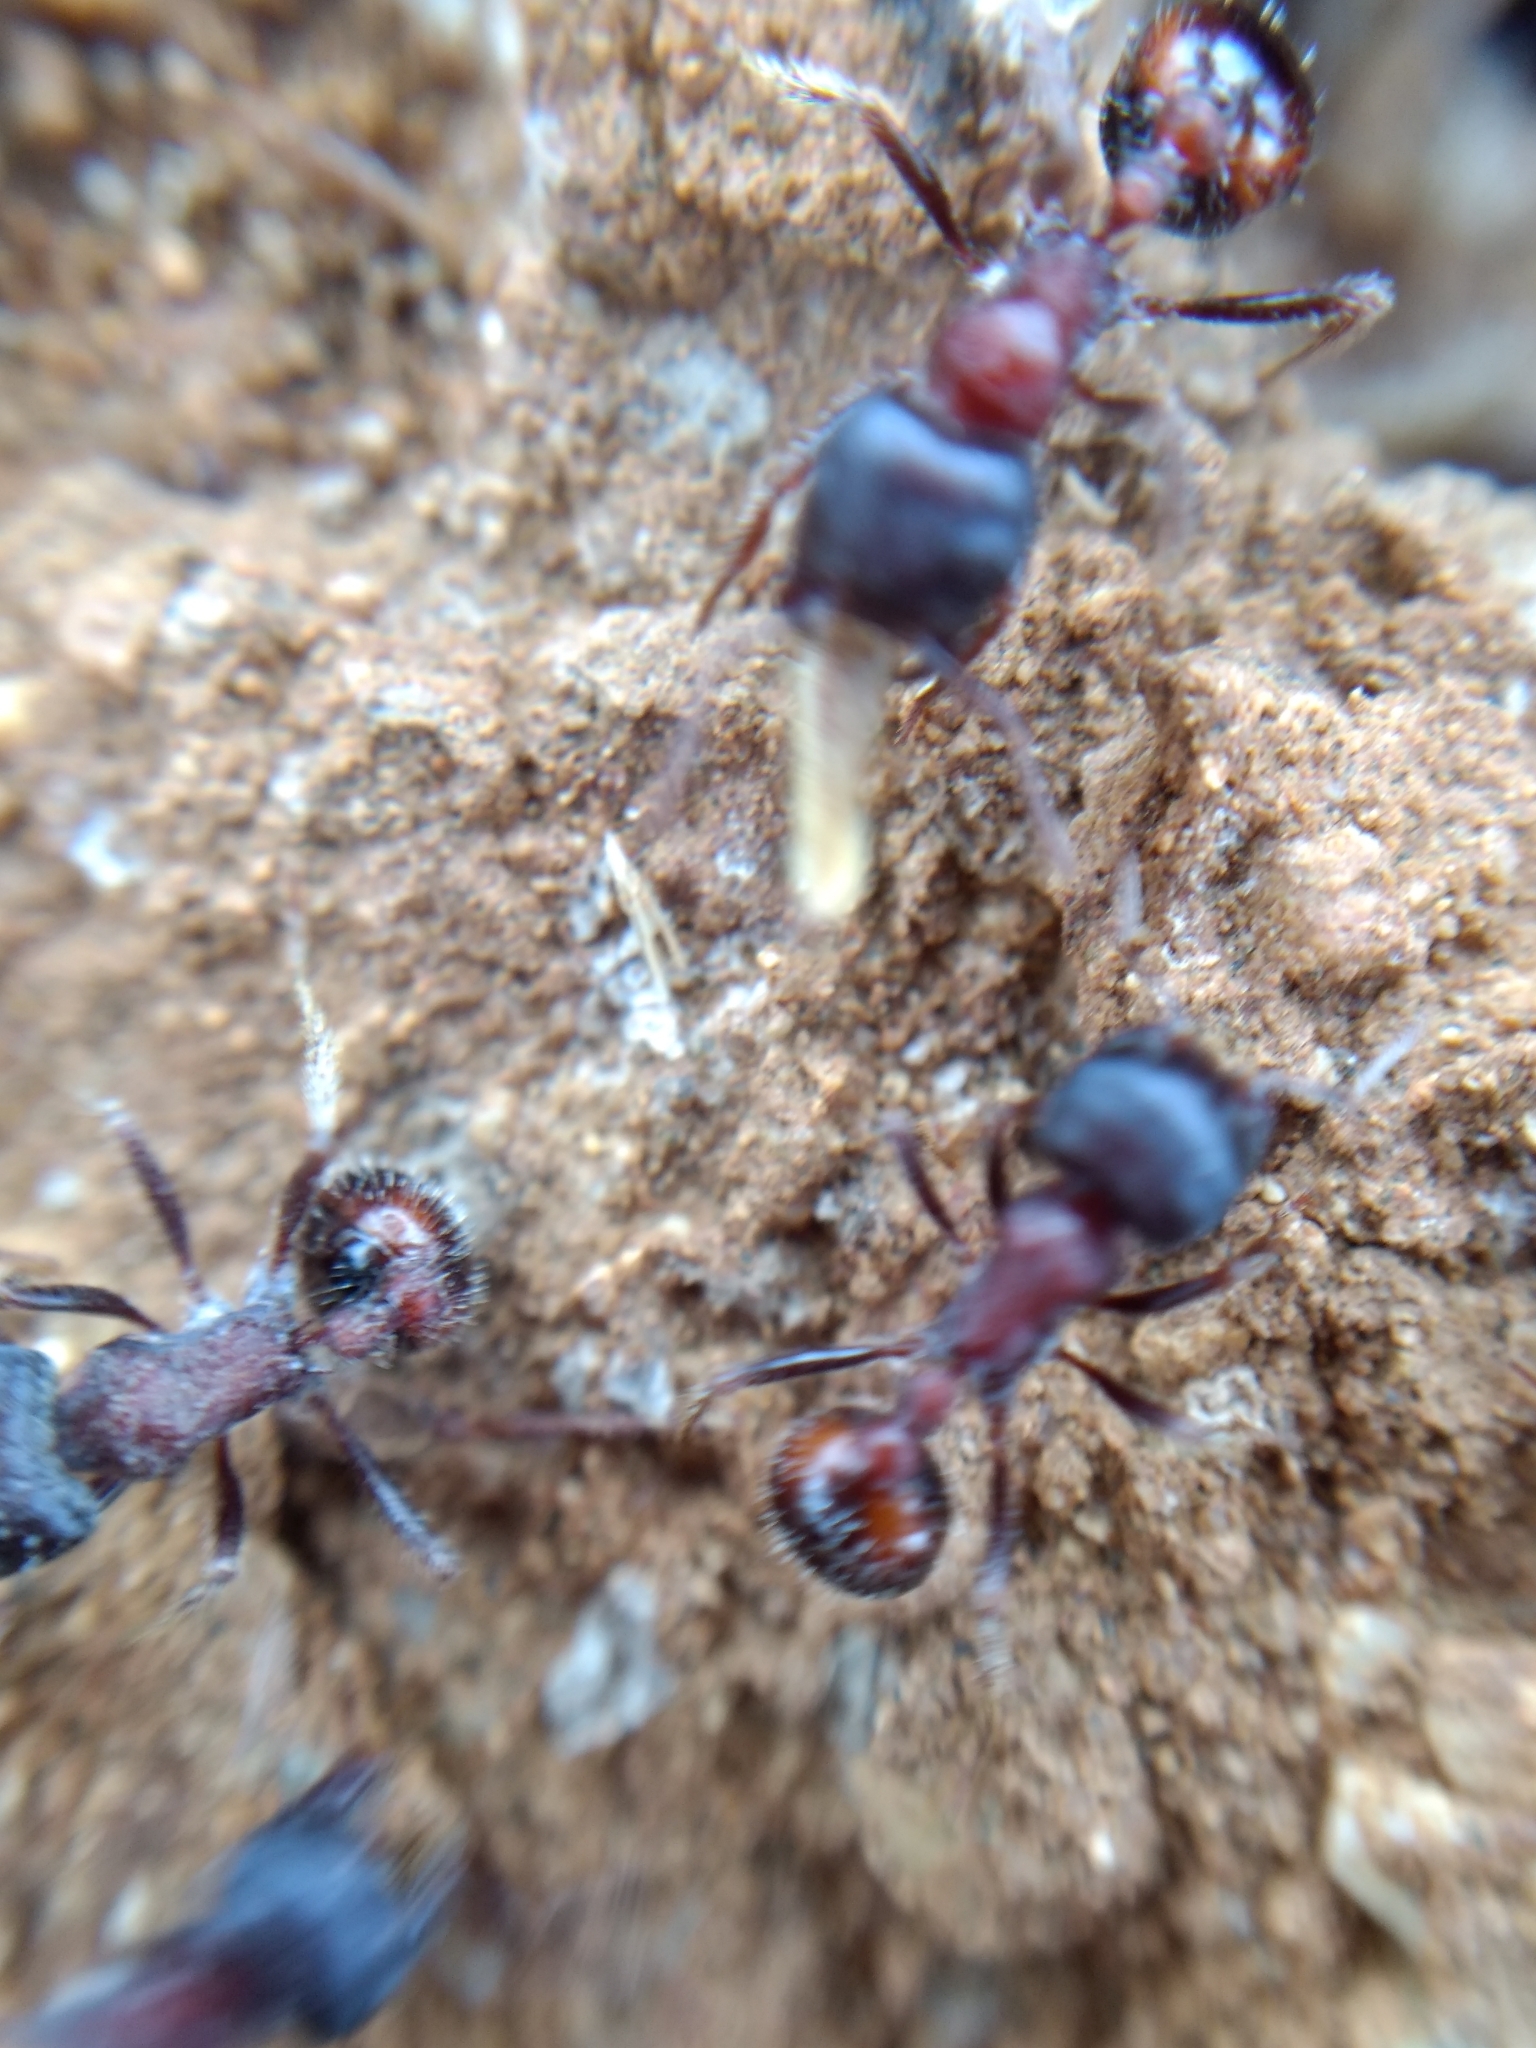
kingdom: Animalia
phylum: Arthropoda
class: Insecta
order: Hymenoptera
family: Formicidae
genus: Pogonomyrmex
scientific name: Pogonomyrmex rugosus
